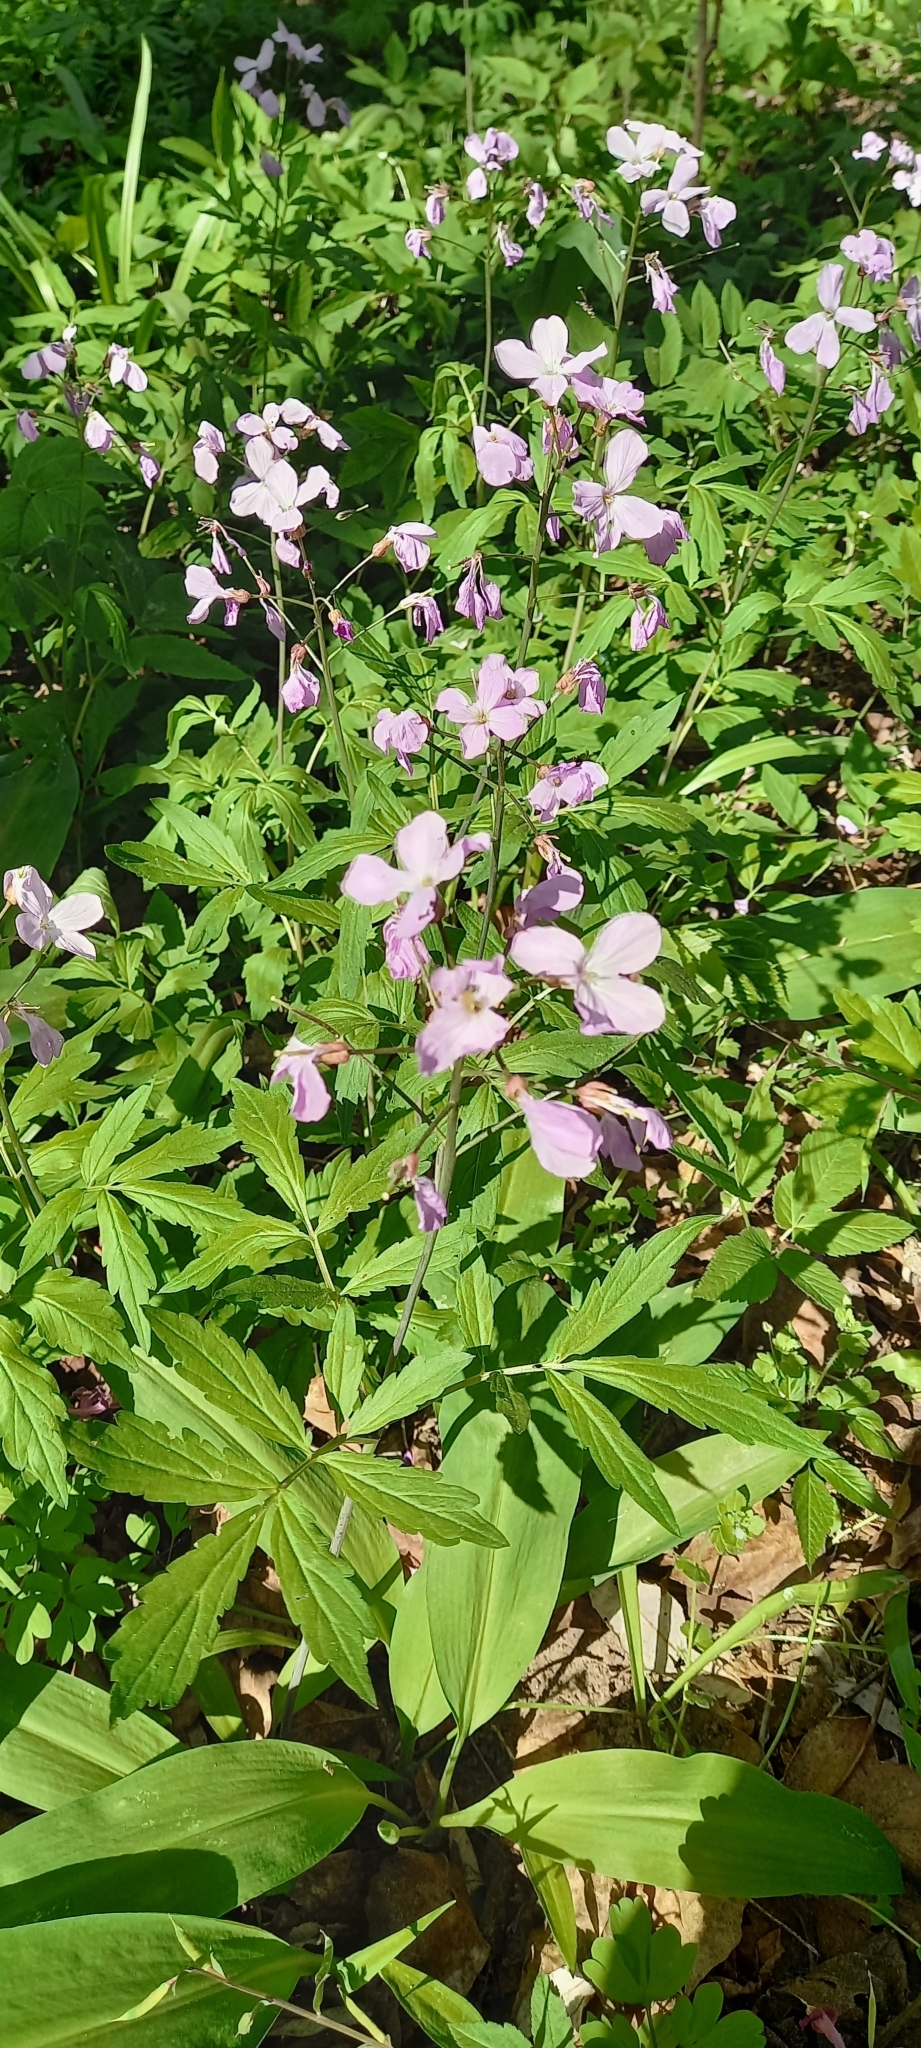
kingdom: Plantae
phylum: Tracheophyta
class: Magnoliopsida
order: Brassicales
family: Brassicaceae
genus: Cardamine
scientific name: Cardamine quinquefolia
